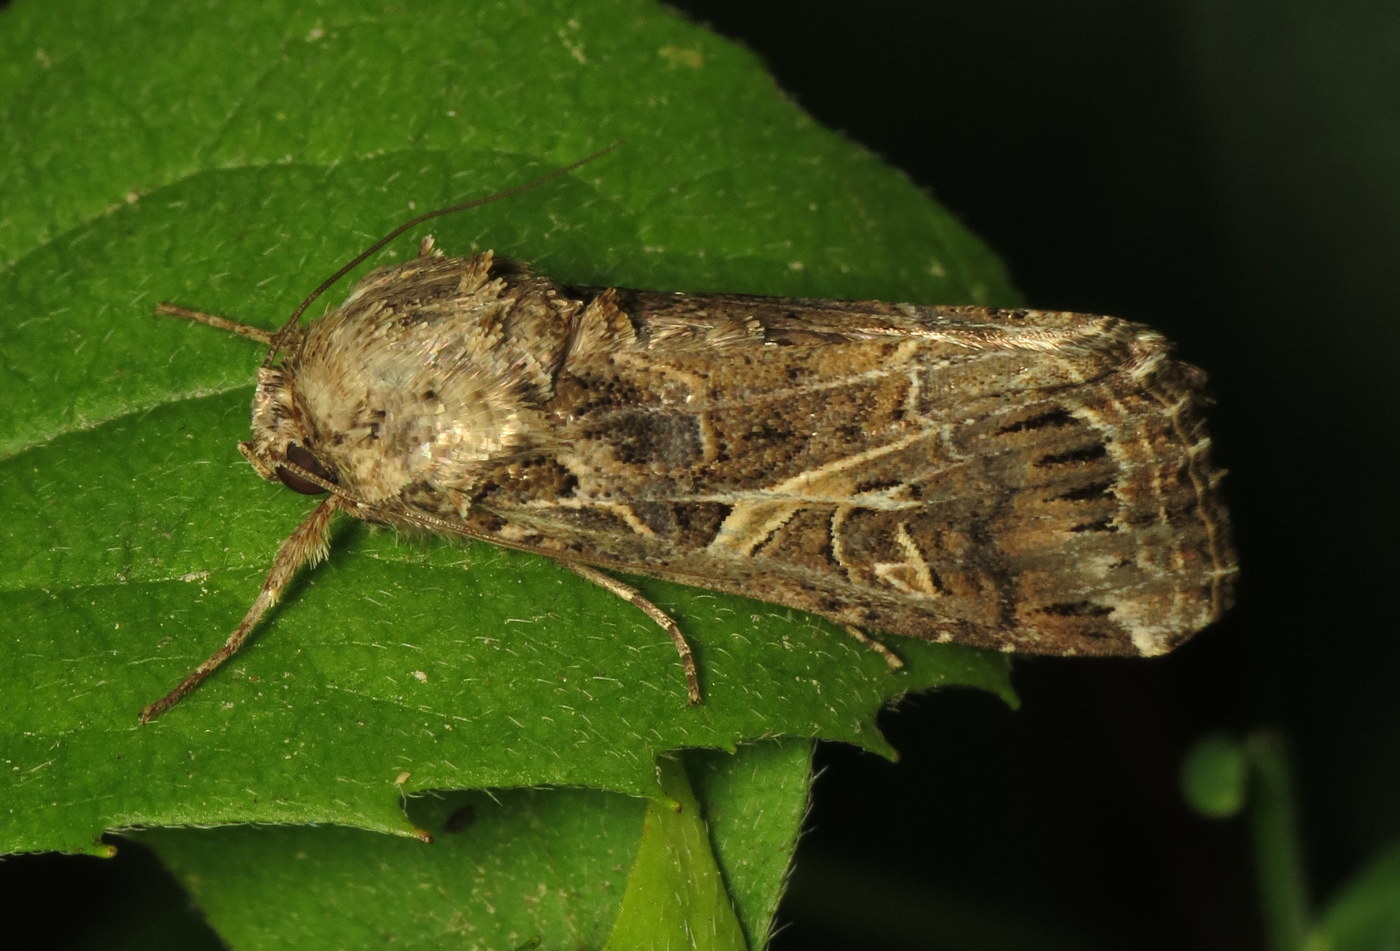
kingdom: Animalia
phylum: Arthropoda
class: Insecta
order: Lepidoptera
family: Noctuidae
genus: Spodoptera
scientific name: Spodoptera ornithogalli
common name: Yellow-striped armyworm
